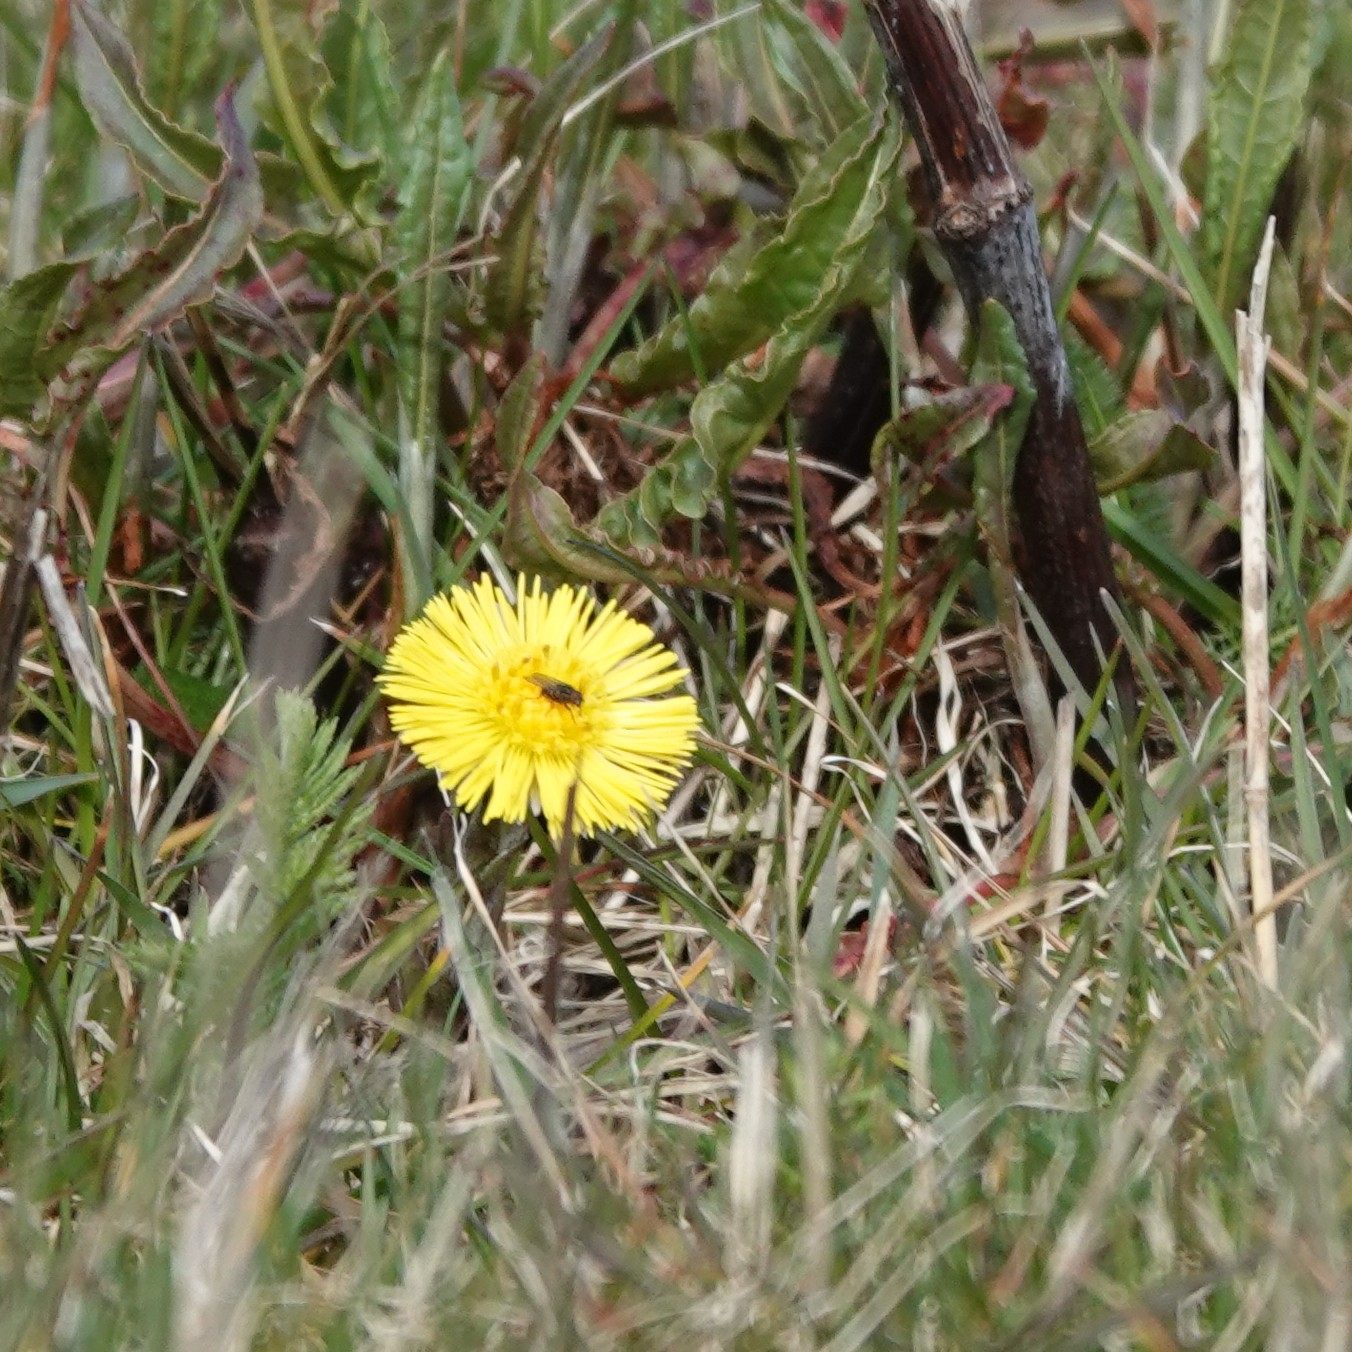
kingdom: Plantae
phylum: Tracheophyta
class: Magnoliopsida
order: Asterales
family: Asteraceae
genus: Tussilago
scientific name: Tussilago farfara
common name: Coltsfoot
